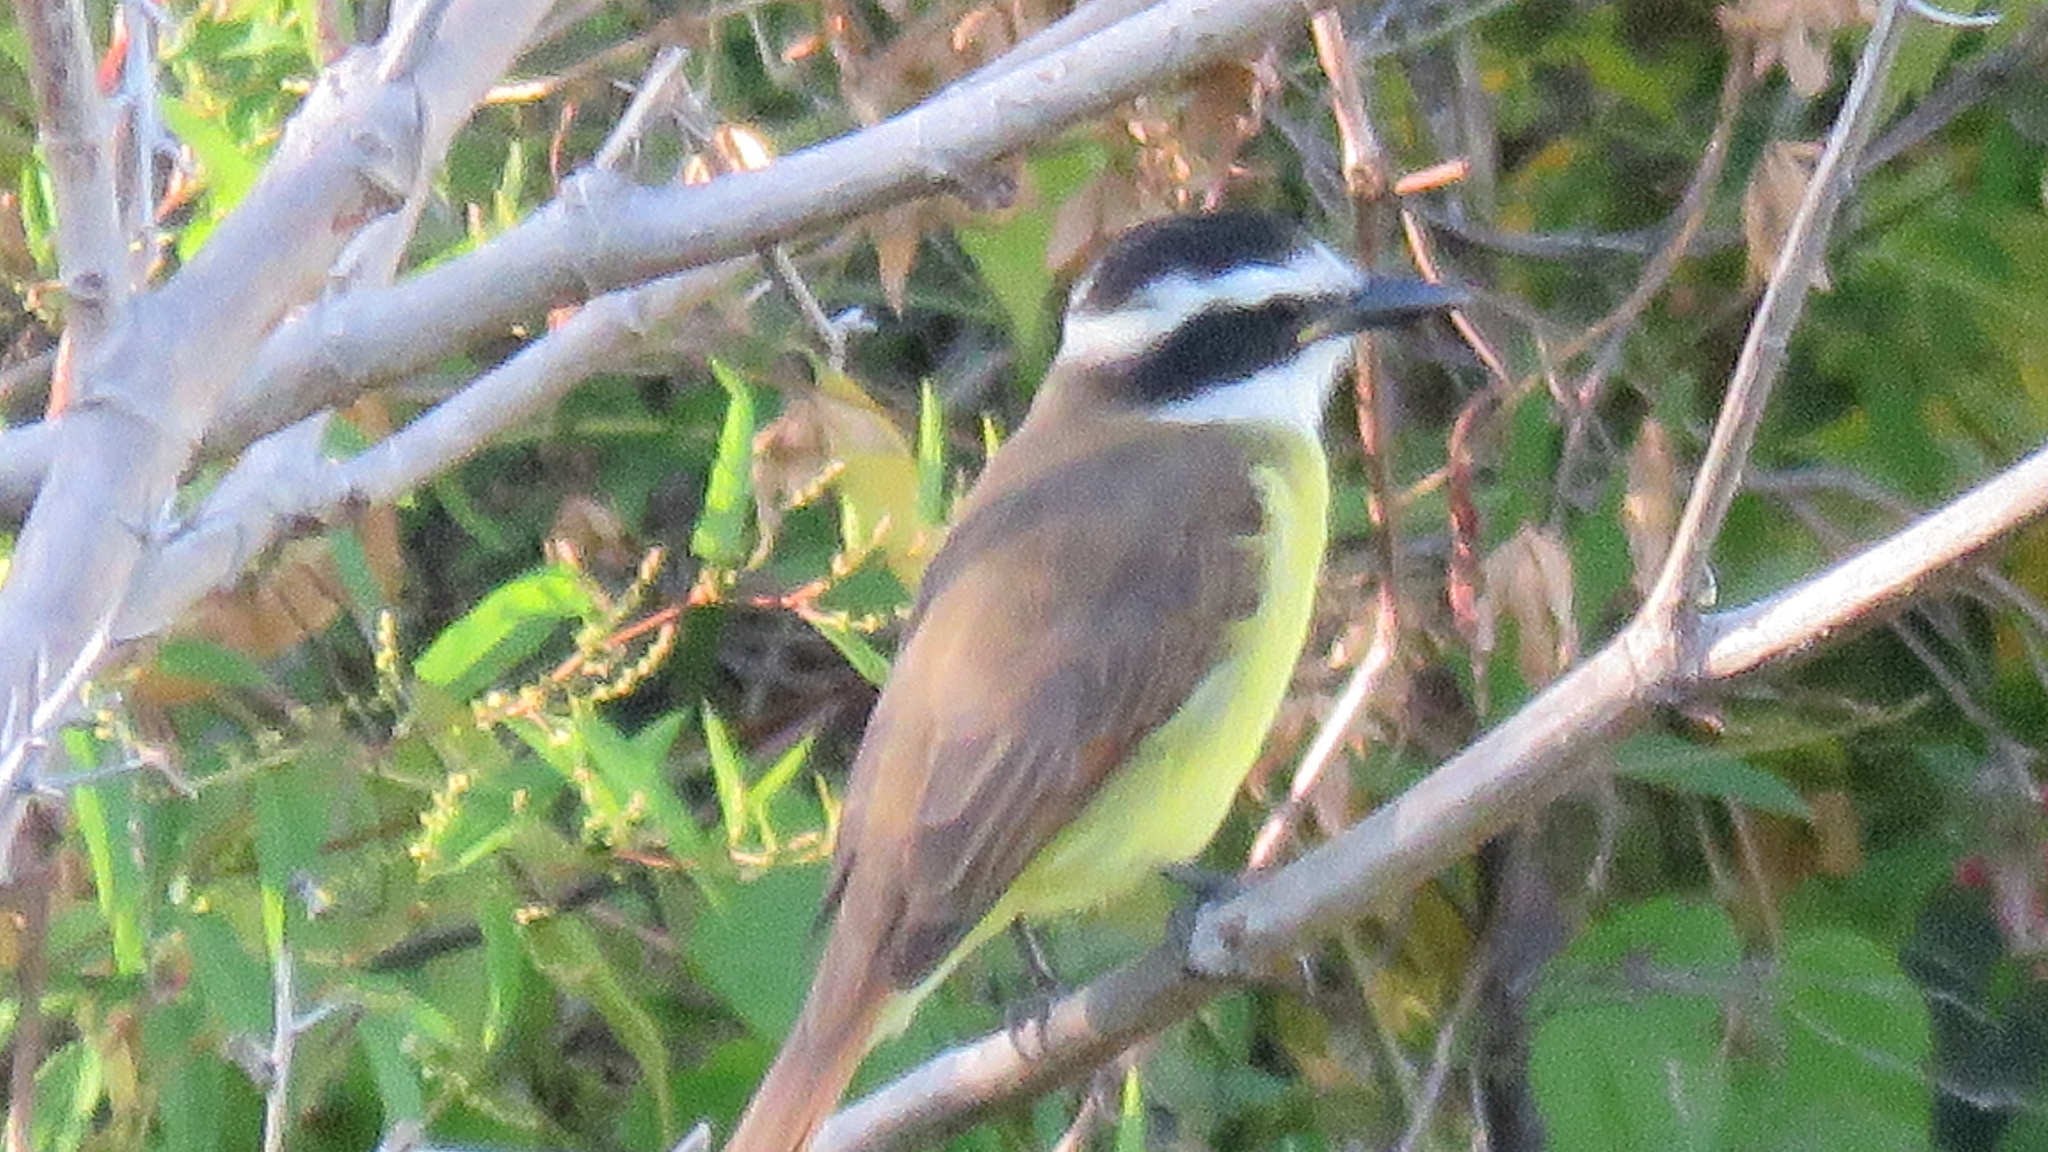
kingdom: Animalia
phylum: Chordata
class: Aves
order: Passeriformes
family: Tyrannidae
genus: Pitangus
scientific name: Pitangus sulphuratus
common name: Great kiskadee
